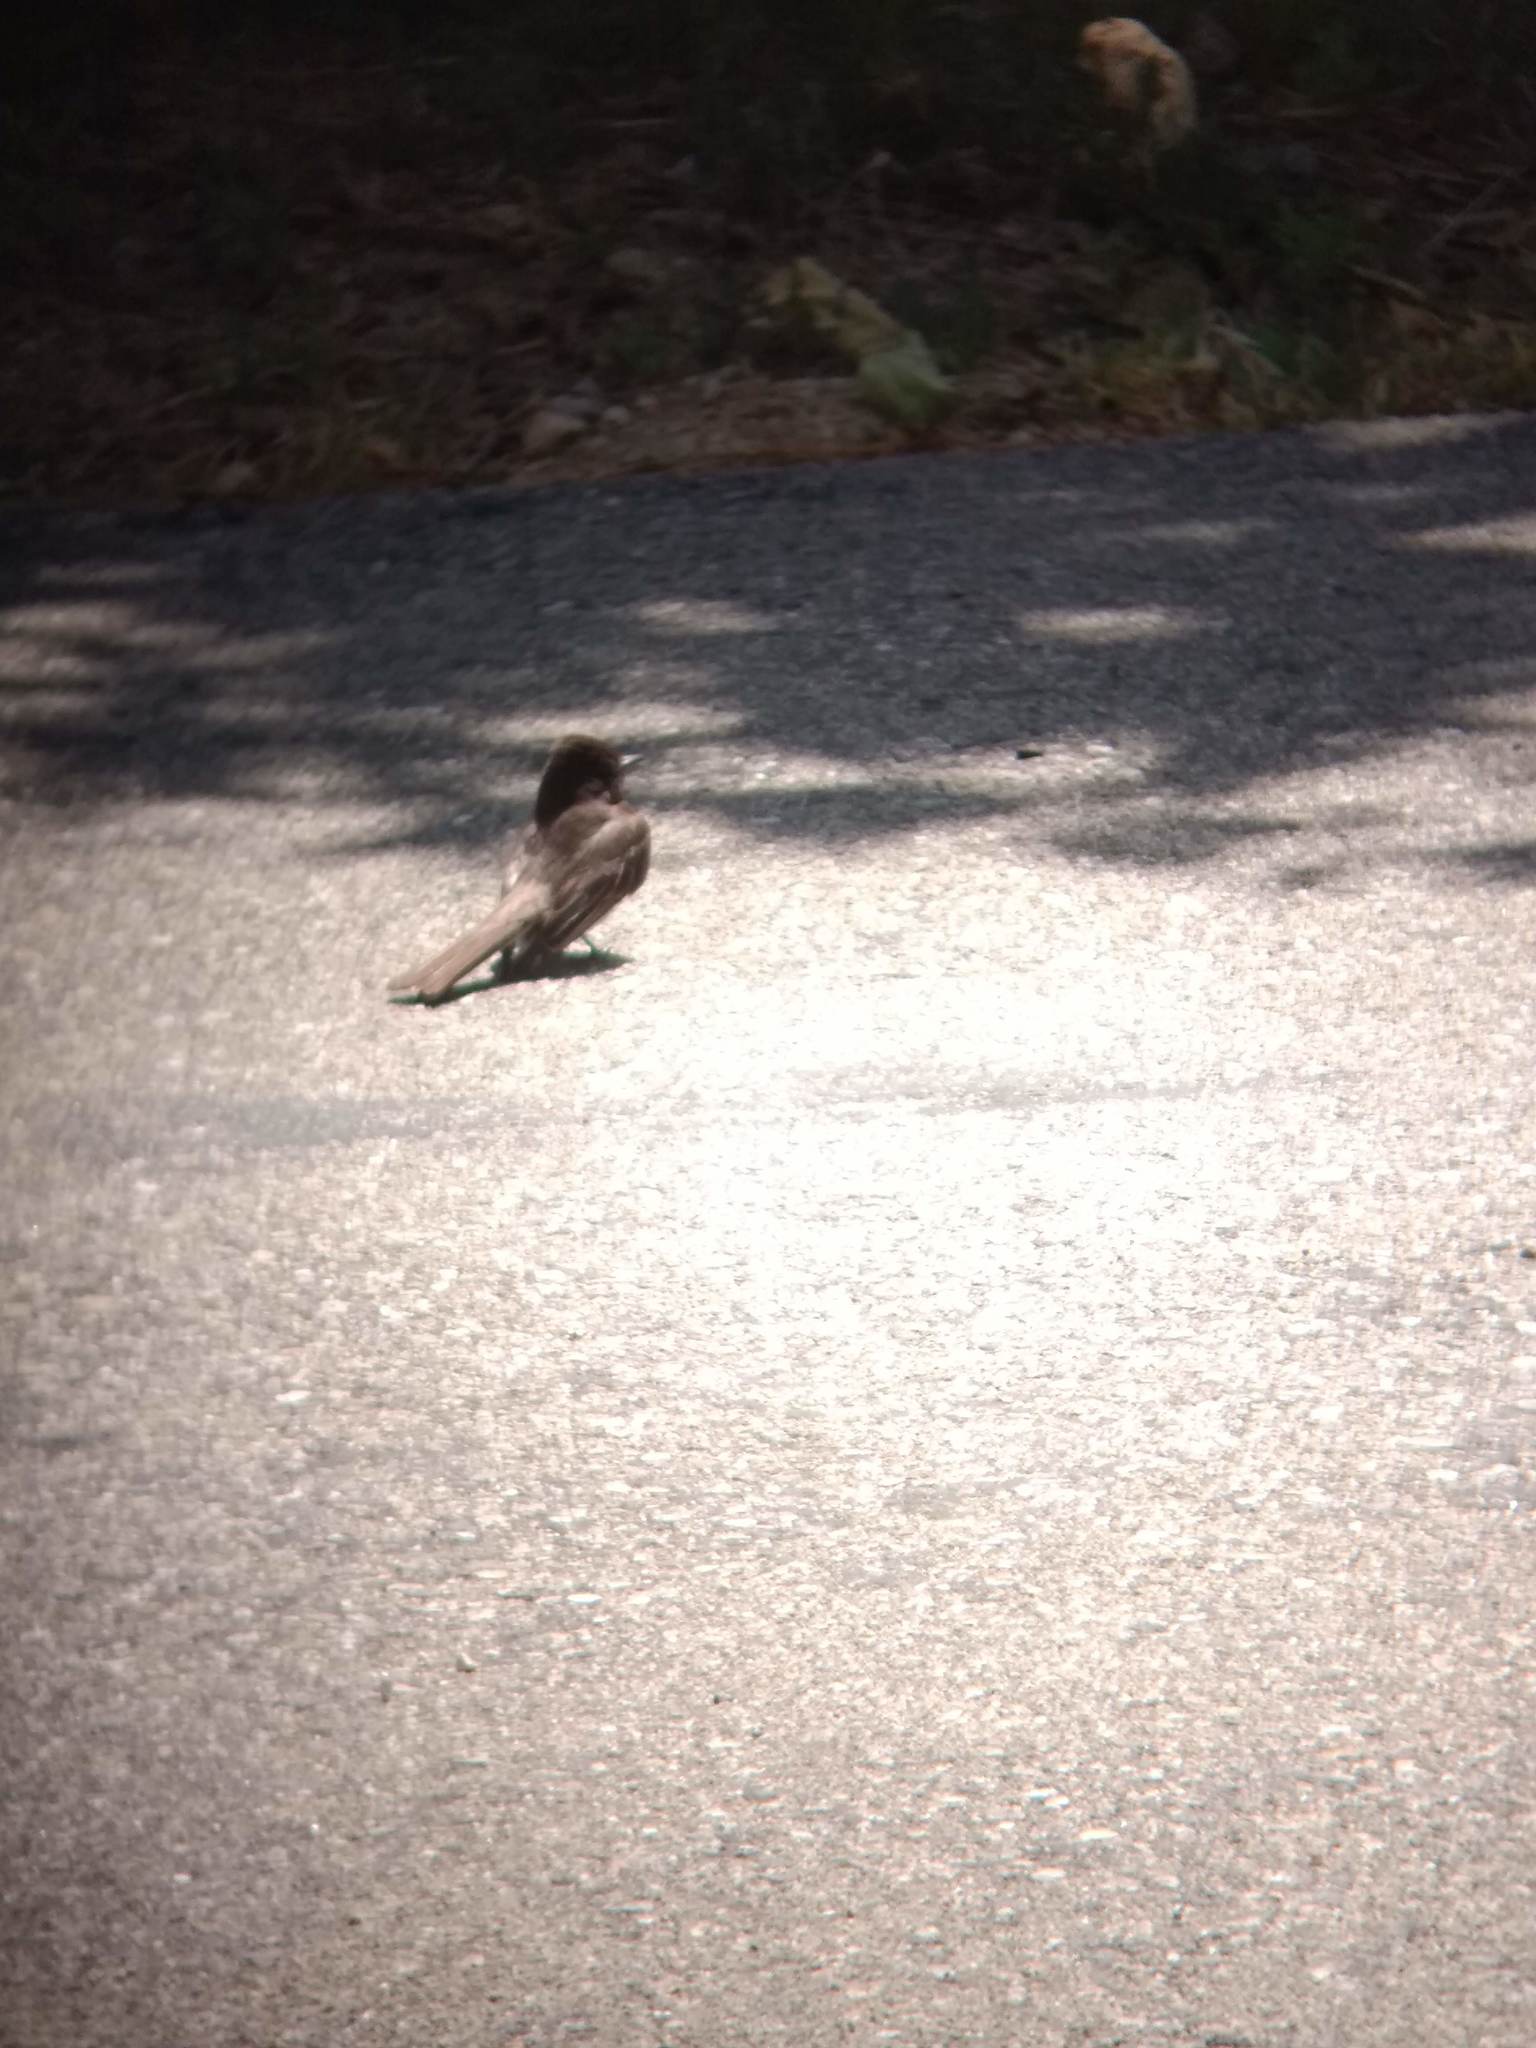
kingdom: Animalia
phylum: Chordata
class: Aves
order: Passeriformes
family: Tyrannidae
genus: Sayornis
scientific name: Sayornis nigricans
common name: Black phoebe
